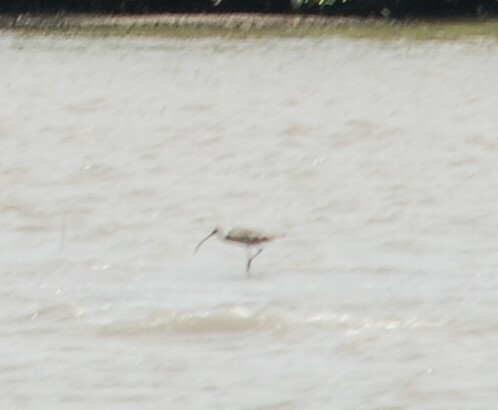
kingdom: Animalia
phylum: Chordata
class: Aves
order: Charadriiformes
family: Scolopacidae
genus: Numenius
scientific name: Numenius madagascariensis
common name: Far eastern curlew
